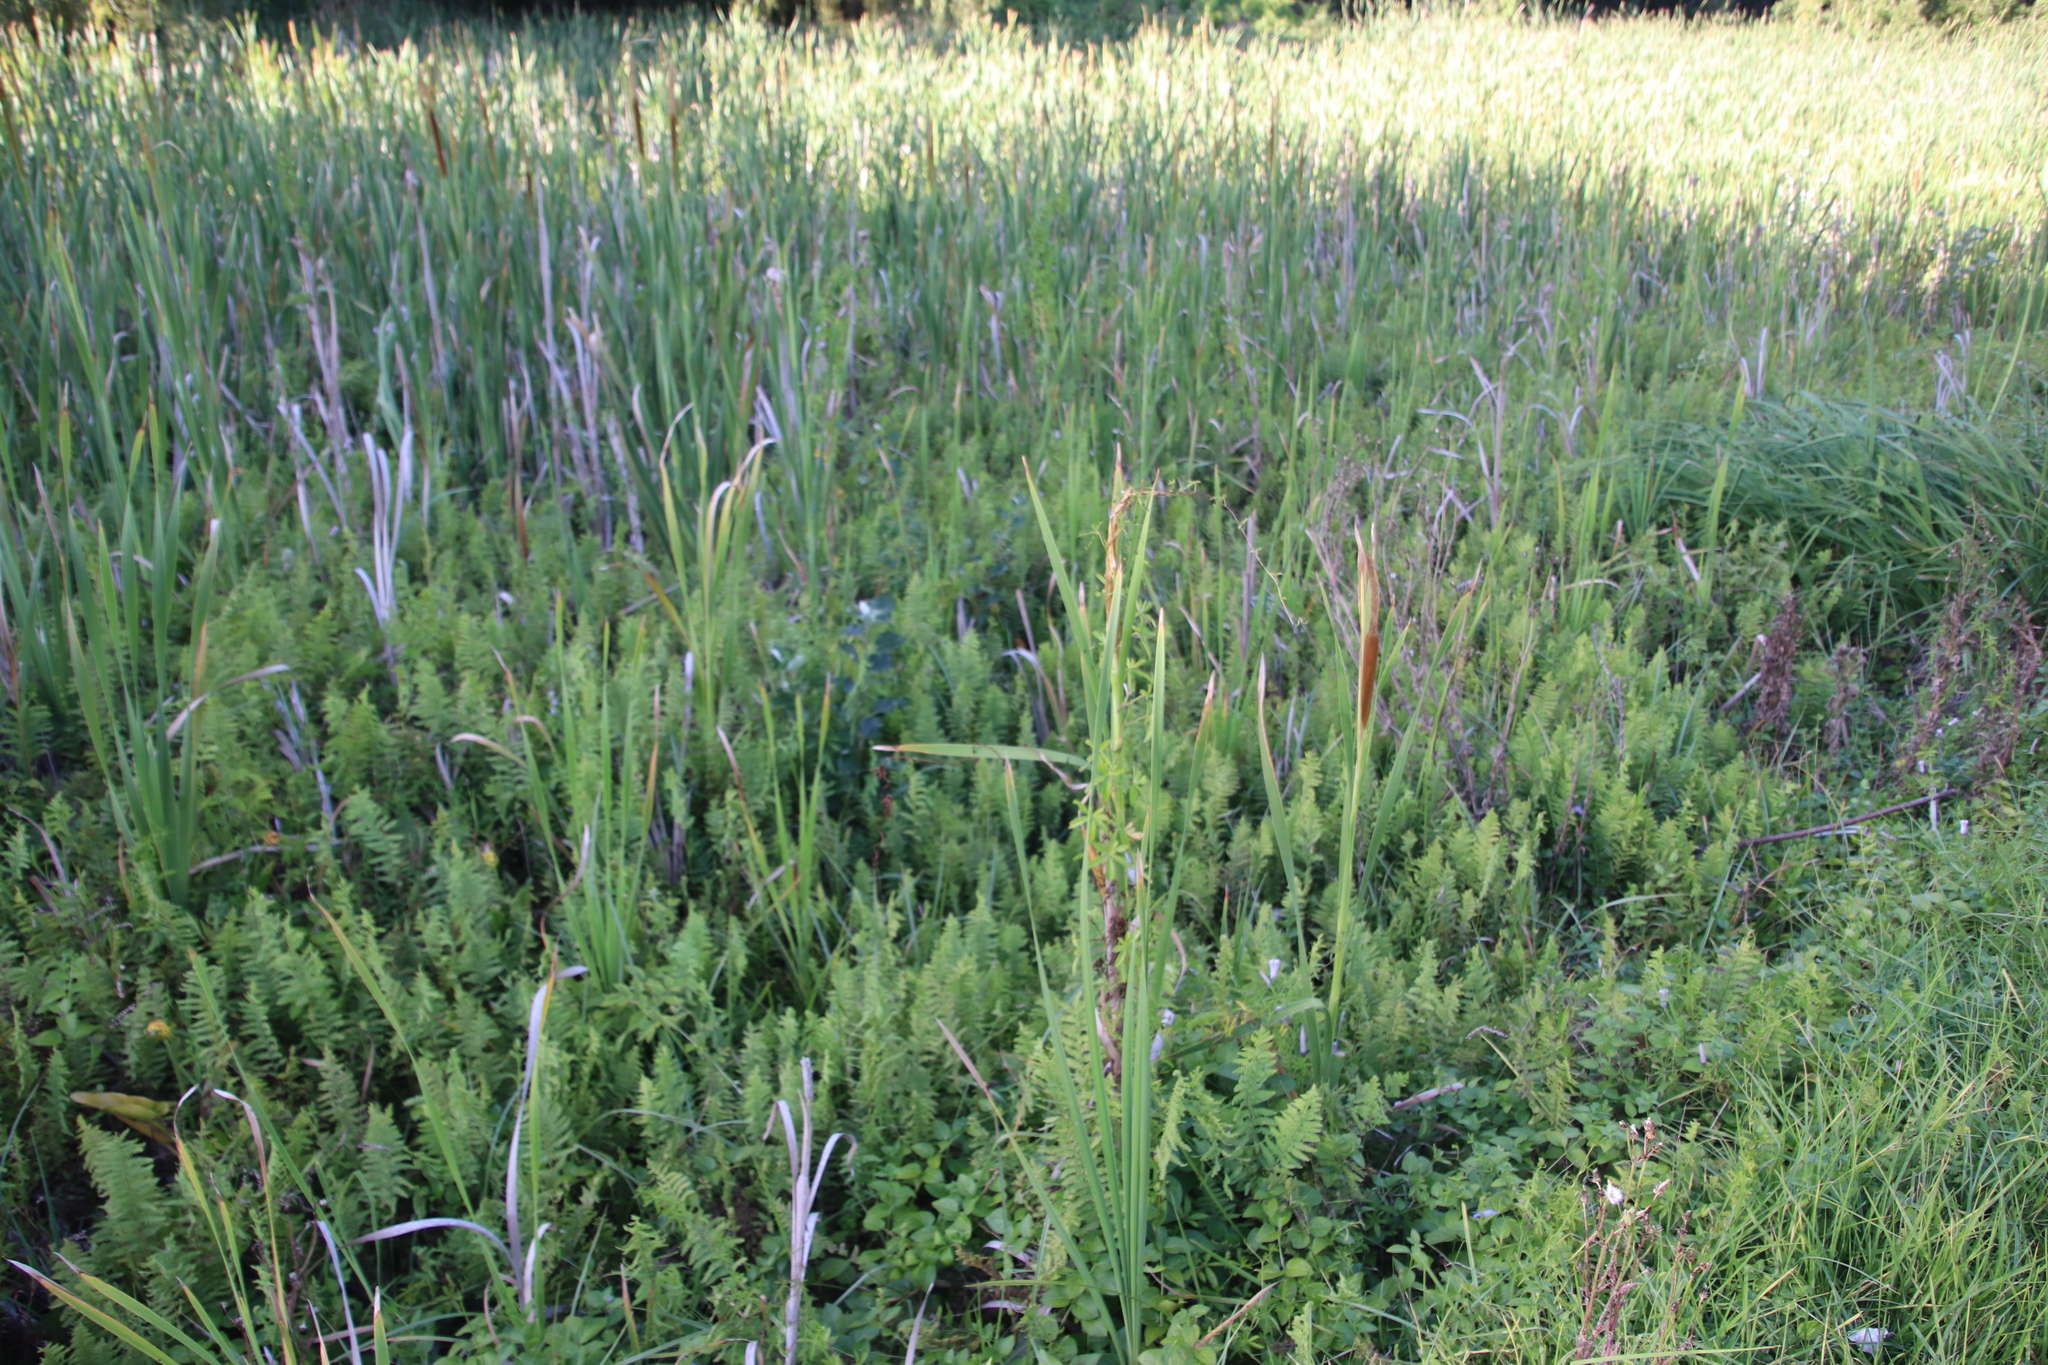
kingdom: Plantae
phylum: Tracheophyta
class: Polypodiopsida
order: Polypodiales
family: Thelypteridaceae
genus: Thelypteris
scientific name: Thelypteris confluens
